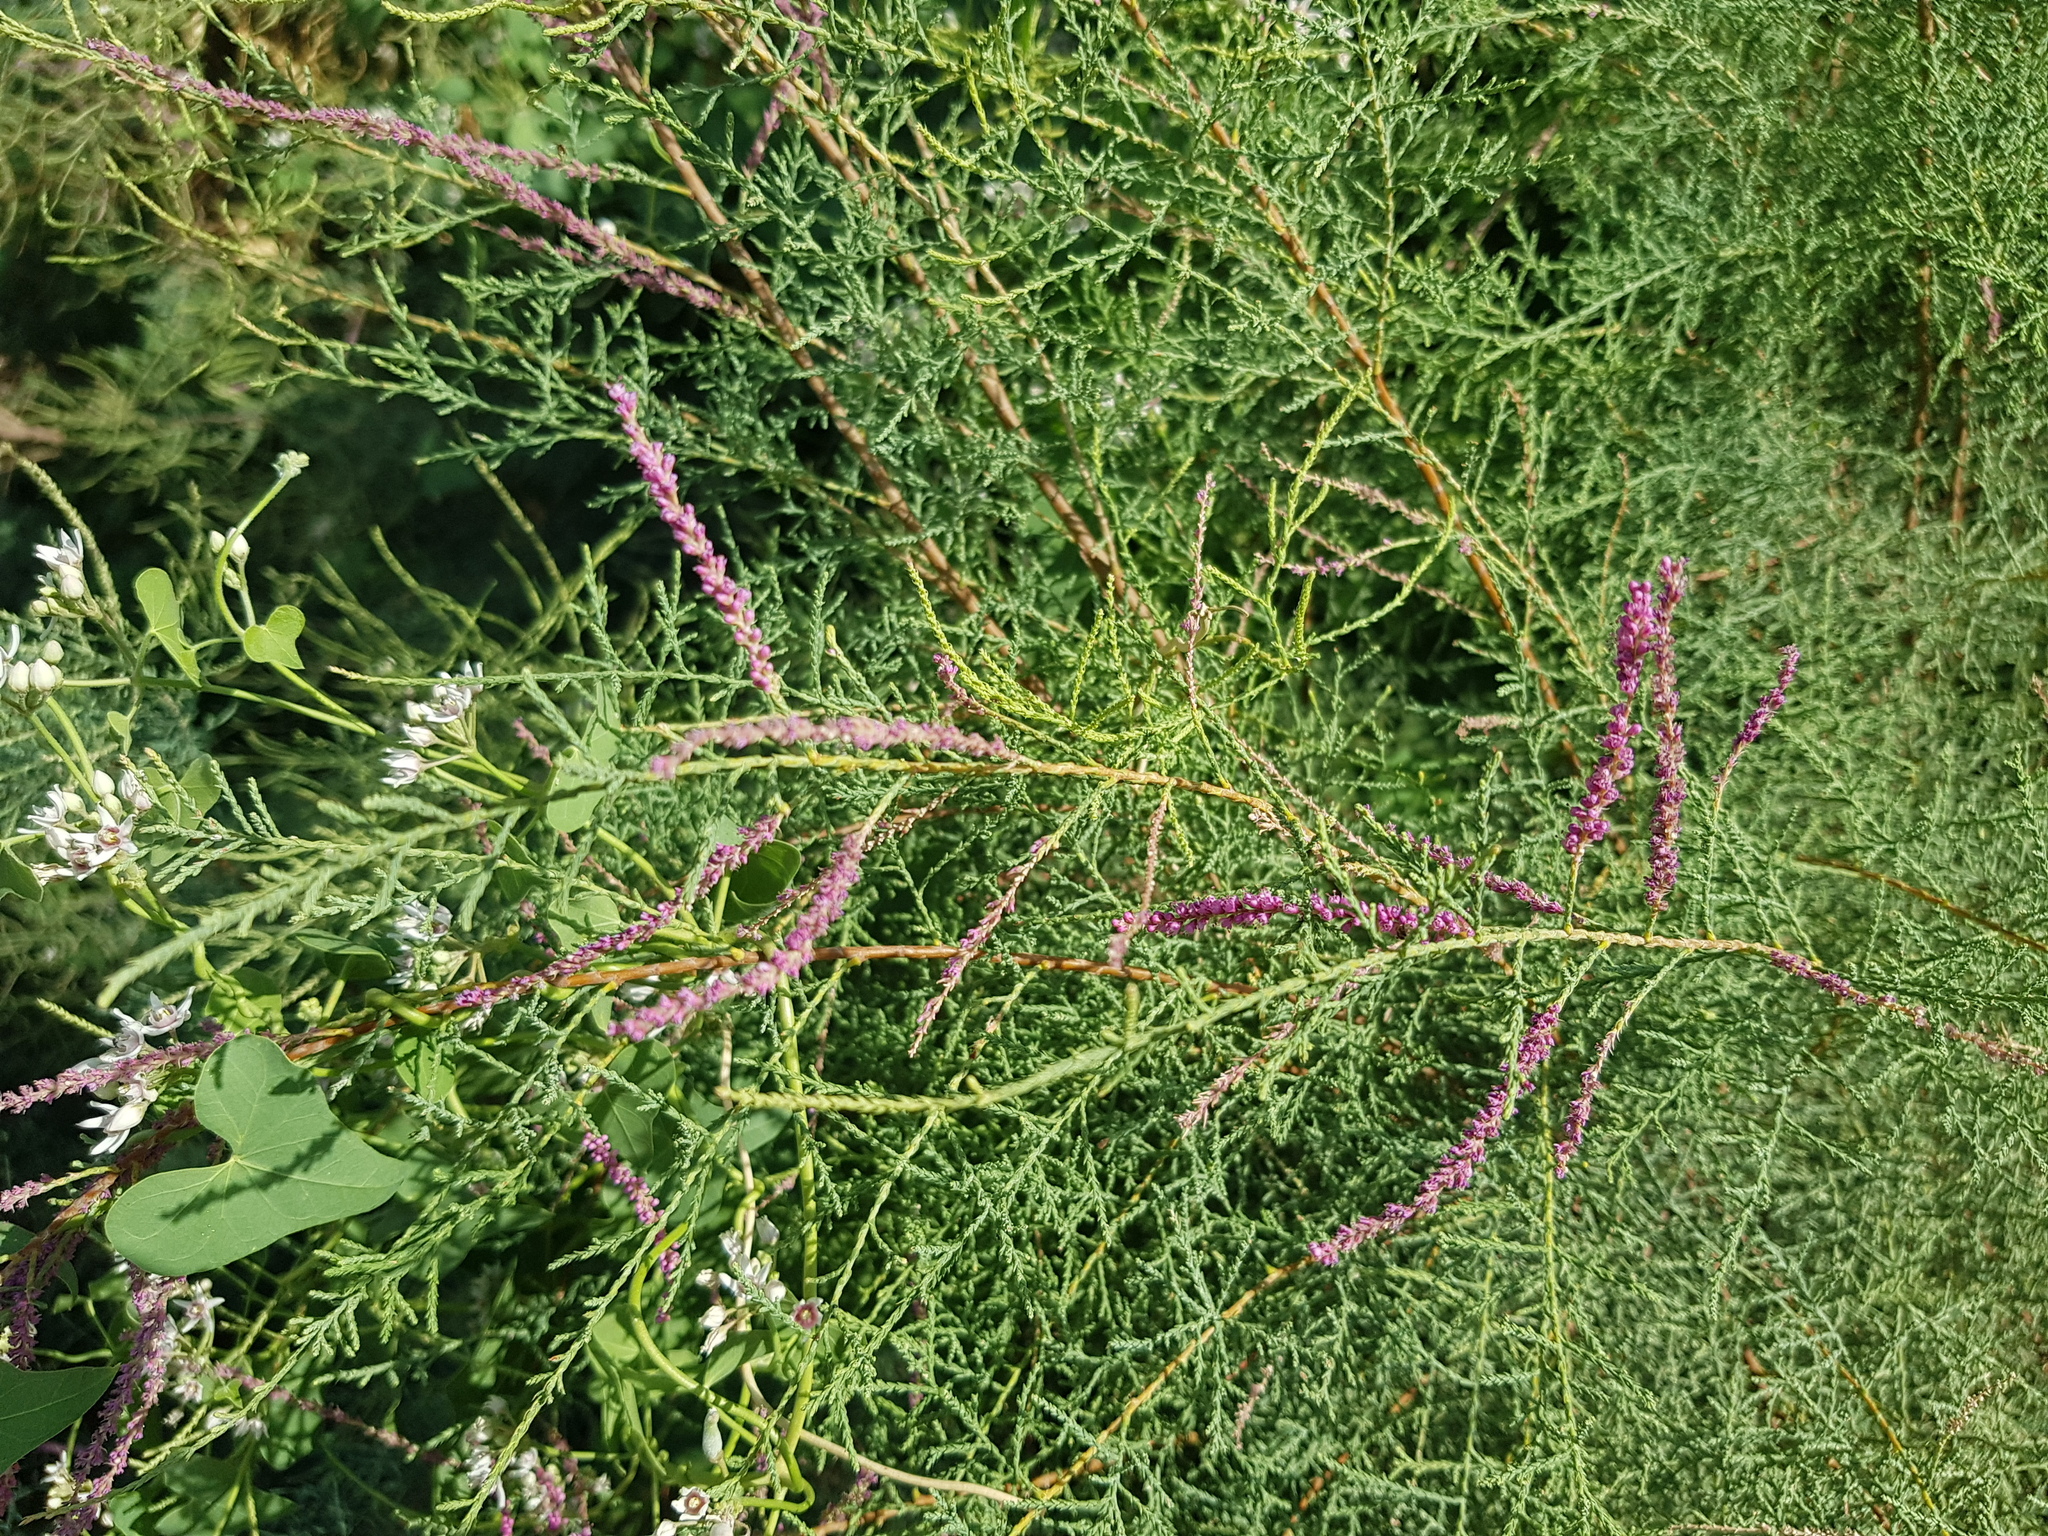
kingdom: Plantae
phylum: Tracheophyta
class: Magnoliopsida
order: Caryophyllales
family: Tamaricaceae
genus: Tamarix
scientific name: Tamarix gracilis
